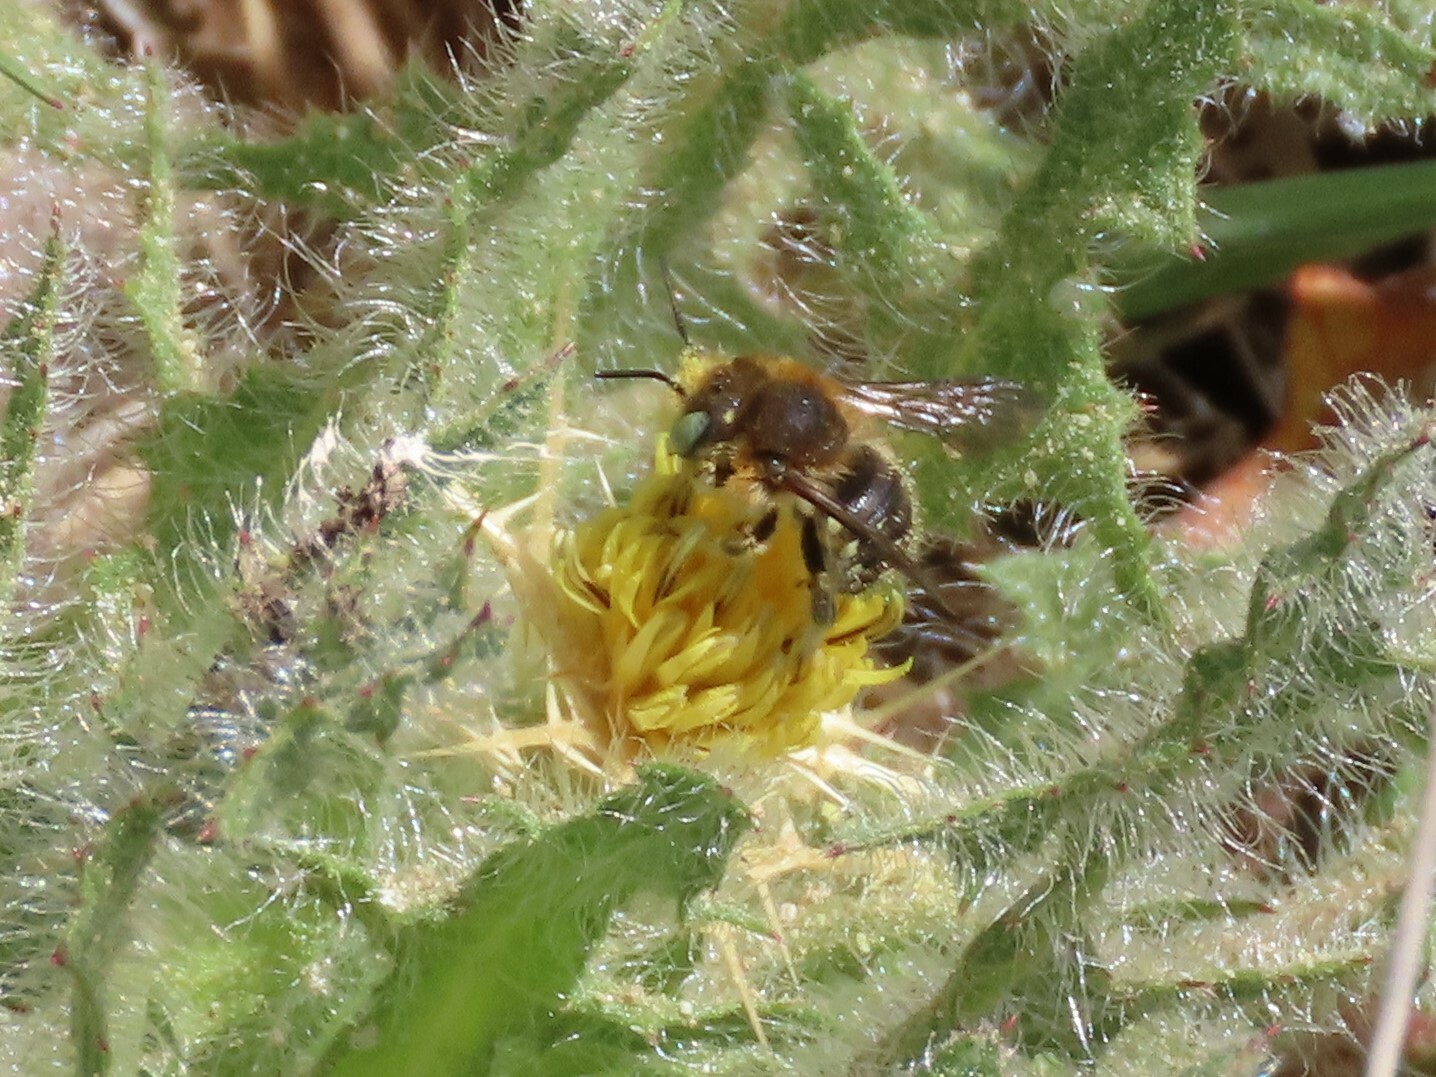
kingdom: Animalia
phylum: Arthropoda
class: Insecta
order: Hymenoptera
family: Megachilidae
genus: Anthidium
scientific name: Anthidium punctatum
